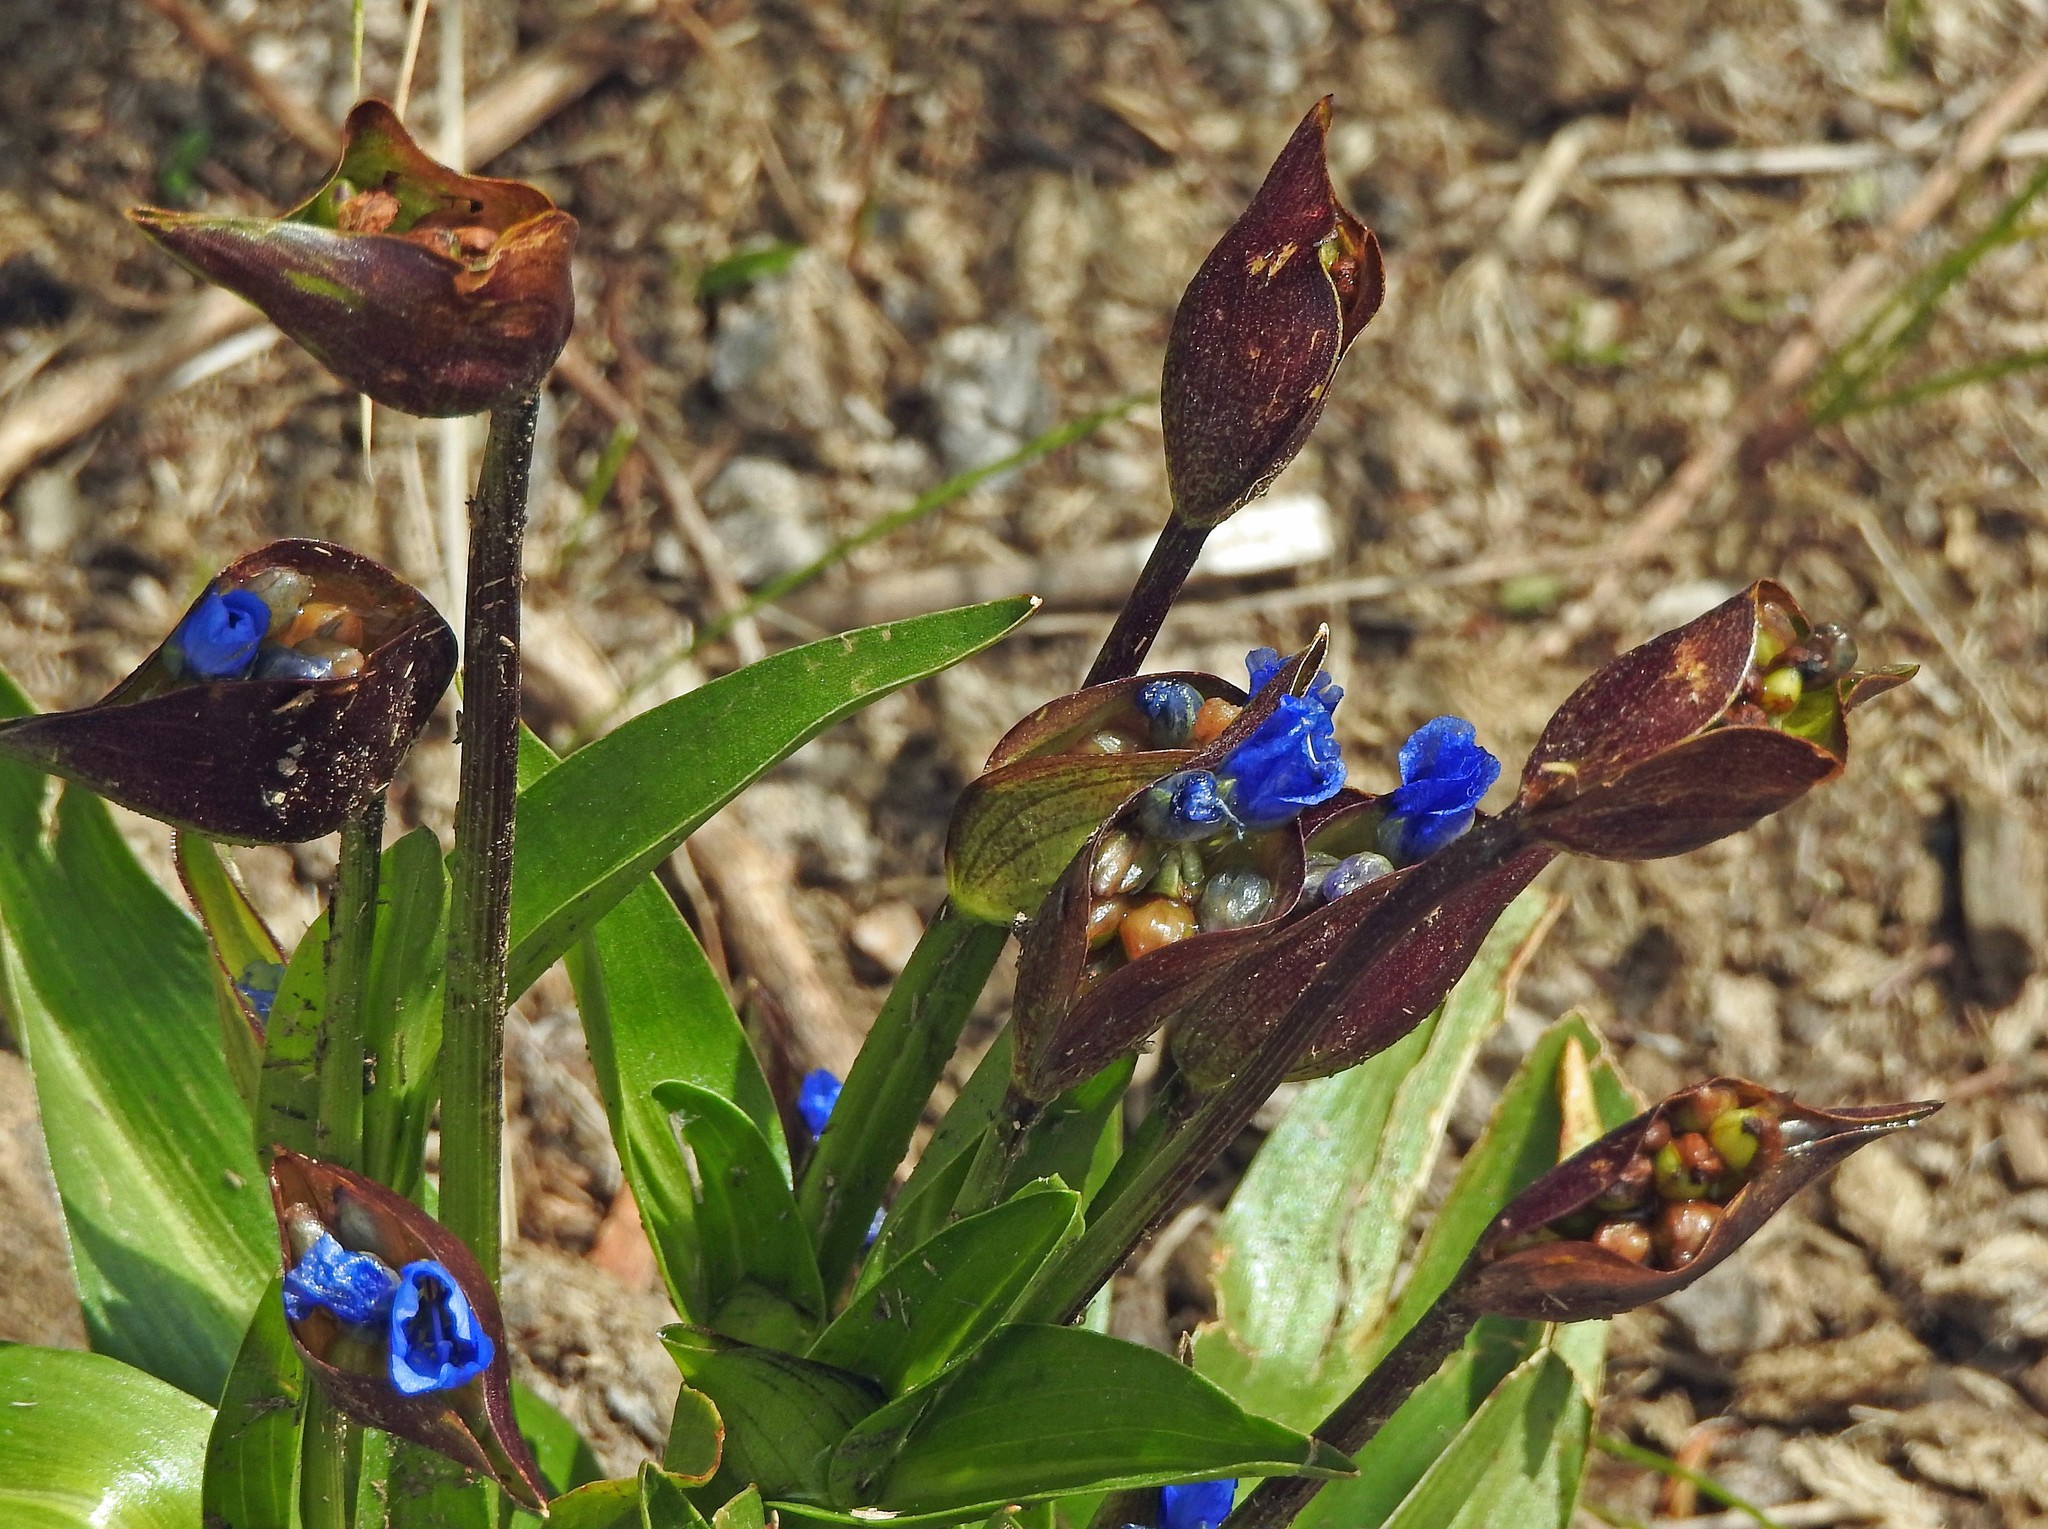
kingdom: Plantae
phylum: Tracheophyta
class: Liliopsida
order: Commelinales
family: Commelinaceae
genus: Commelina
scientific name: Commelina tuberosa
